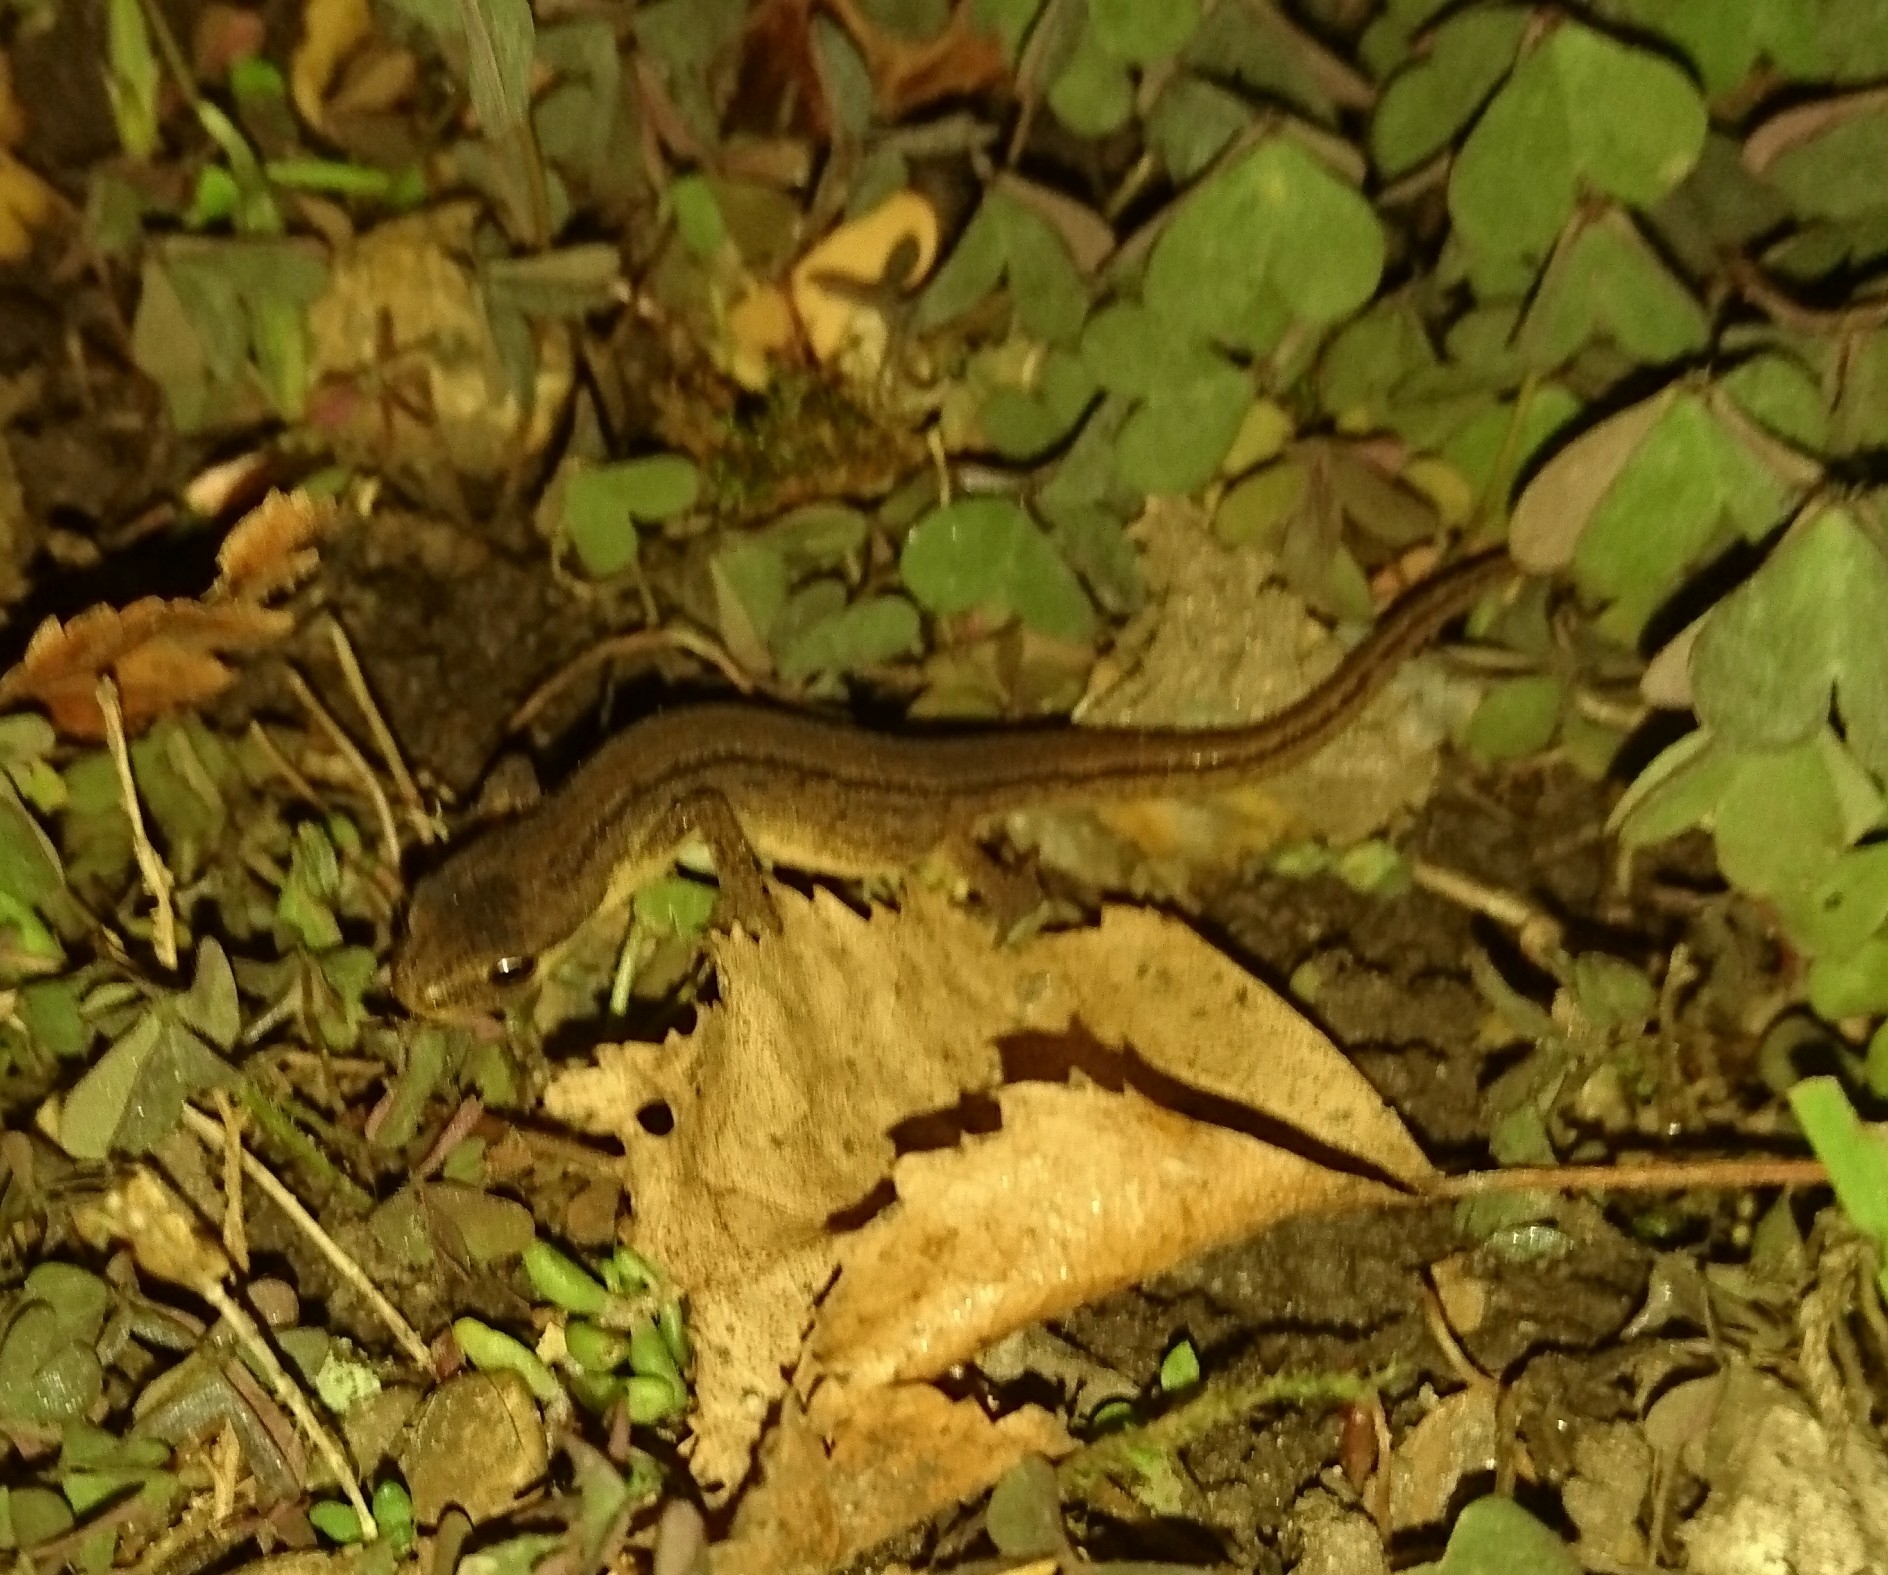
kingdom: Animalia
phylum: Chordata
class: Amphibia
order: Caudata
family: Salamandridae
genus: Lissotriton
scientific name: Lissotriton vulgaris
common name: Smooth newt
